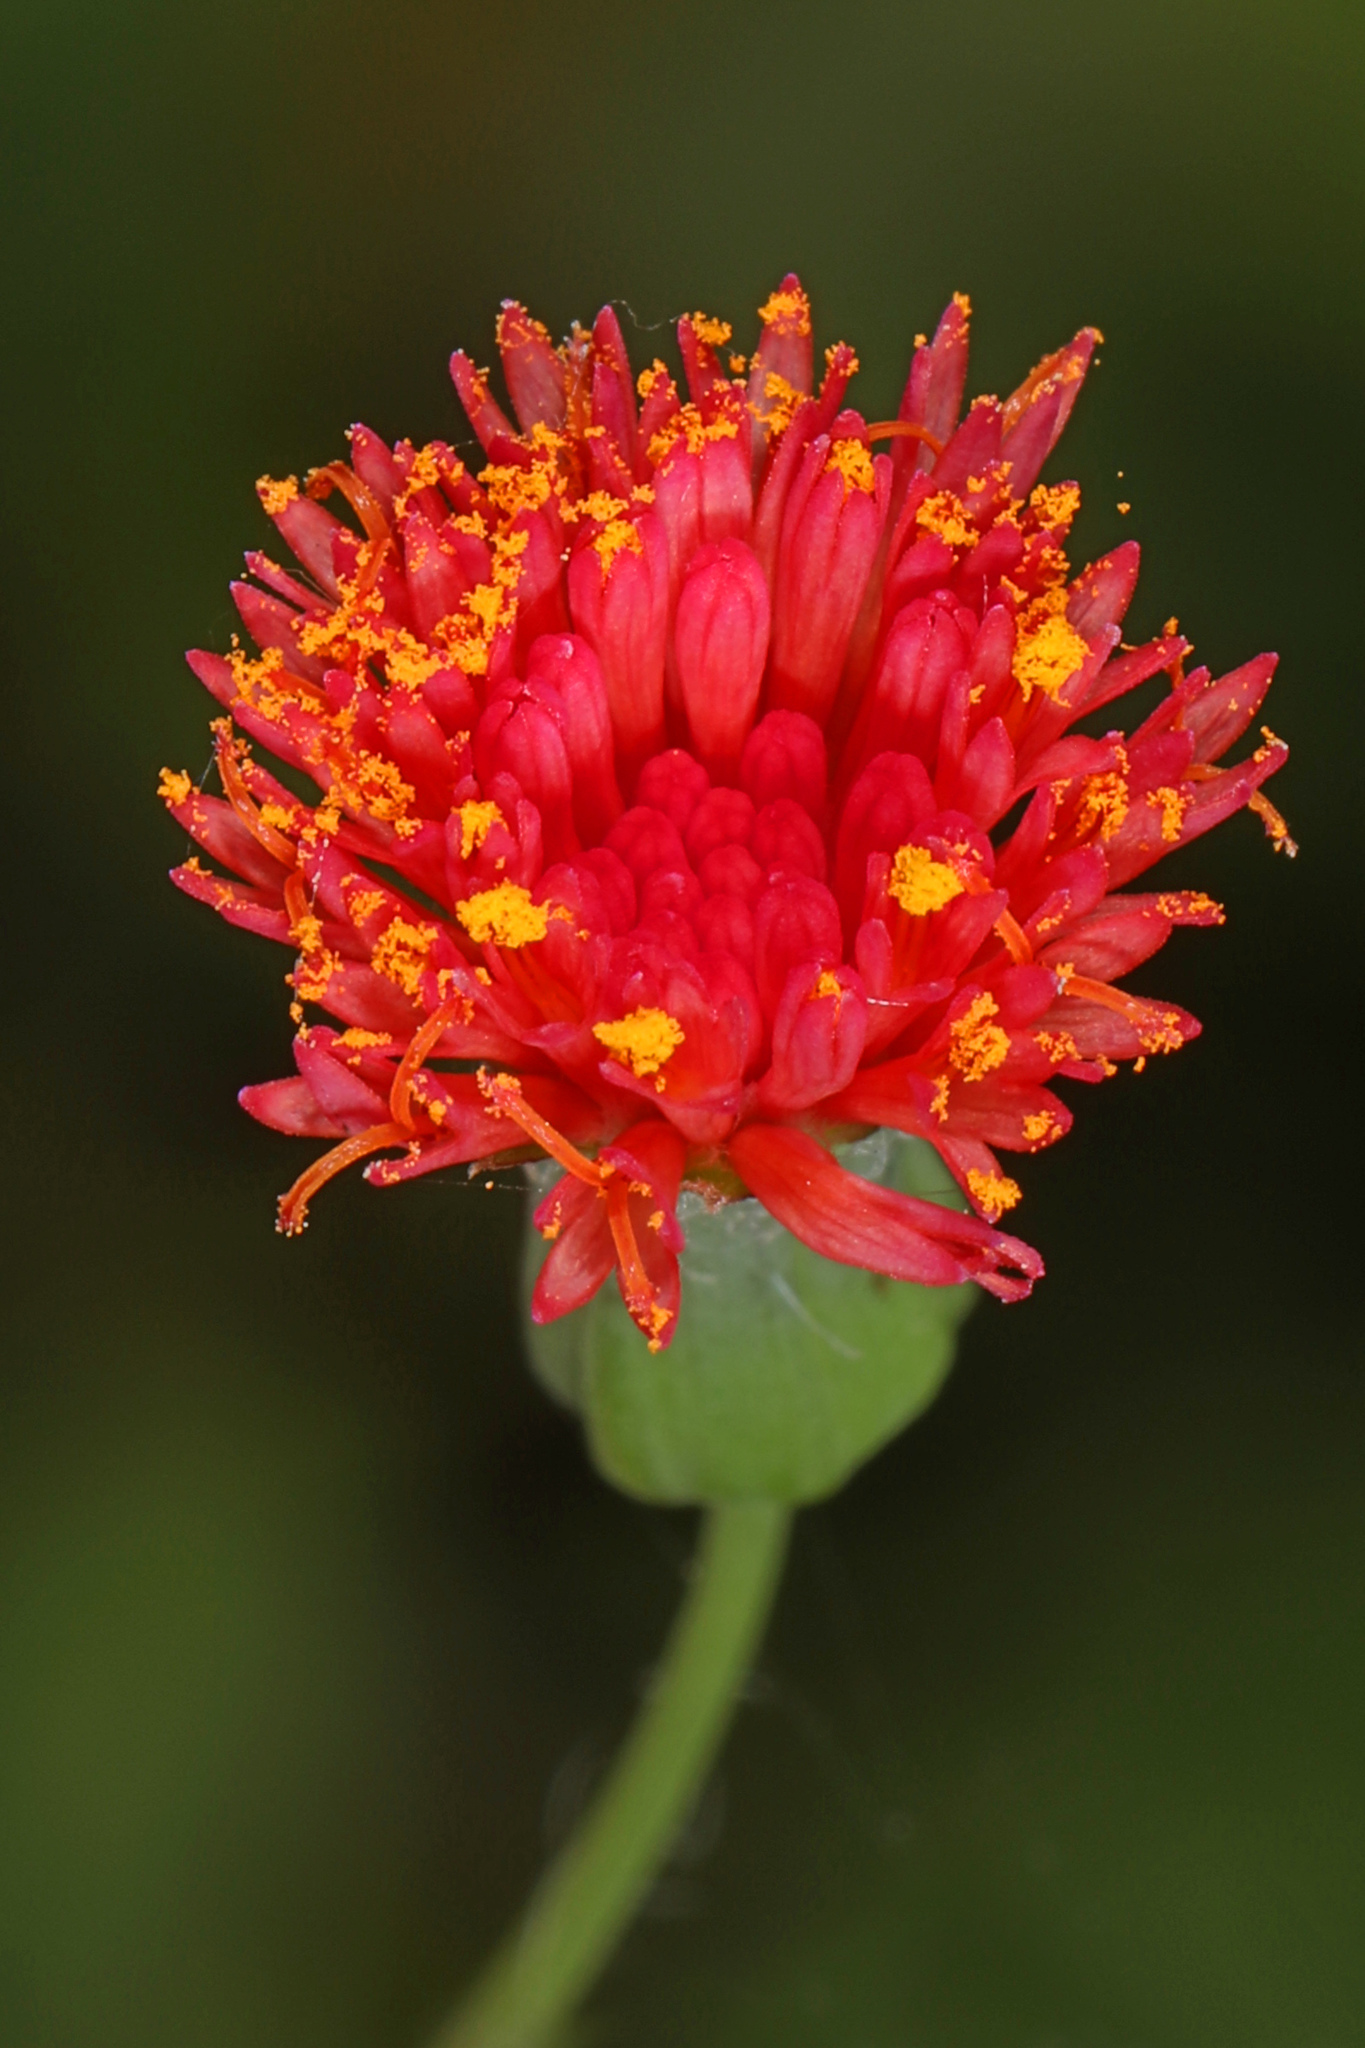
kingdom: Plantae
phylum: Tracheophyta
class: Magnoliopsida
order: Asterales
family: Asteraceae
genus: Emilia
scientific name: Emilia fosbergii
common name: Florida tasselflower
